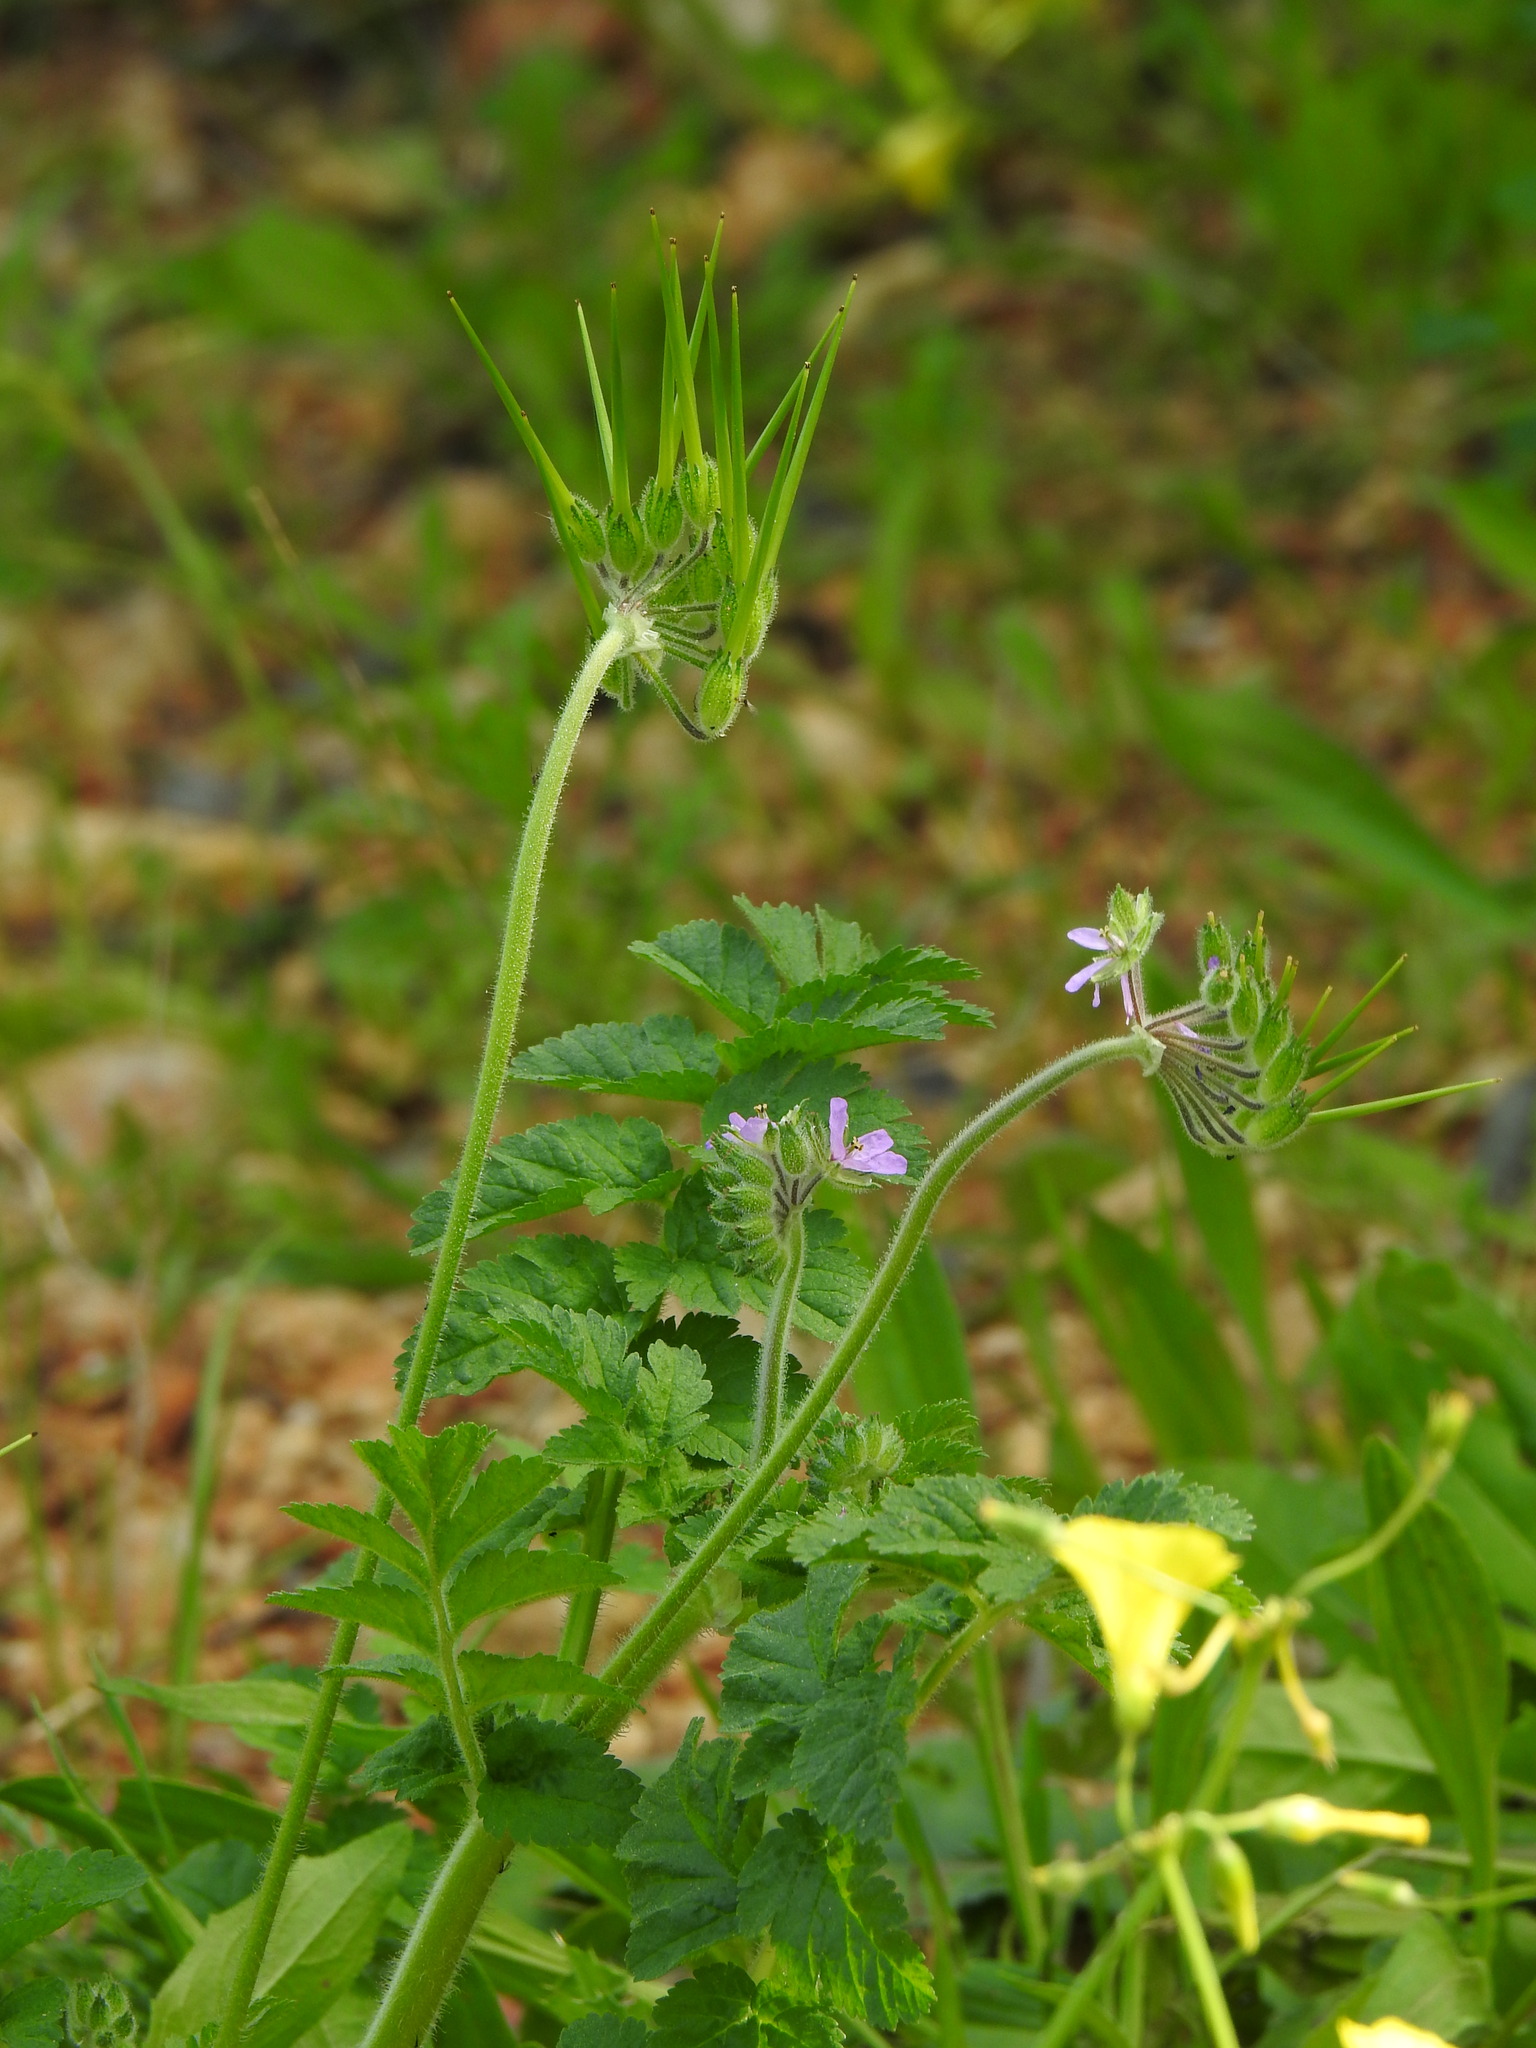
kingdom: Plantae
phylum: Tracheophyta
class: Magnoliopsida
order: Geraniales
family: Geraniaceae
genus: Erodium
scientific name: Erodium moschatum
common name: Musk stork's-bill
